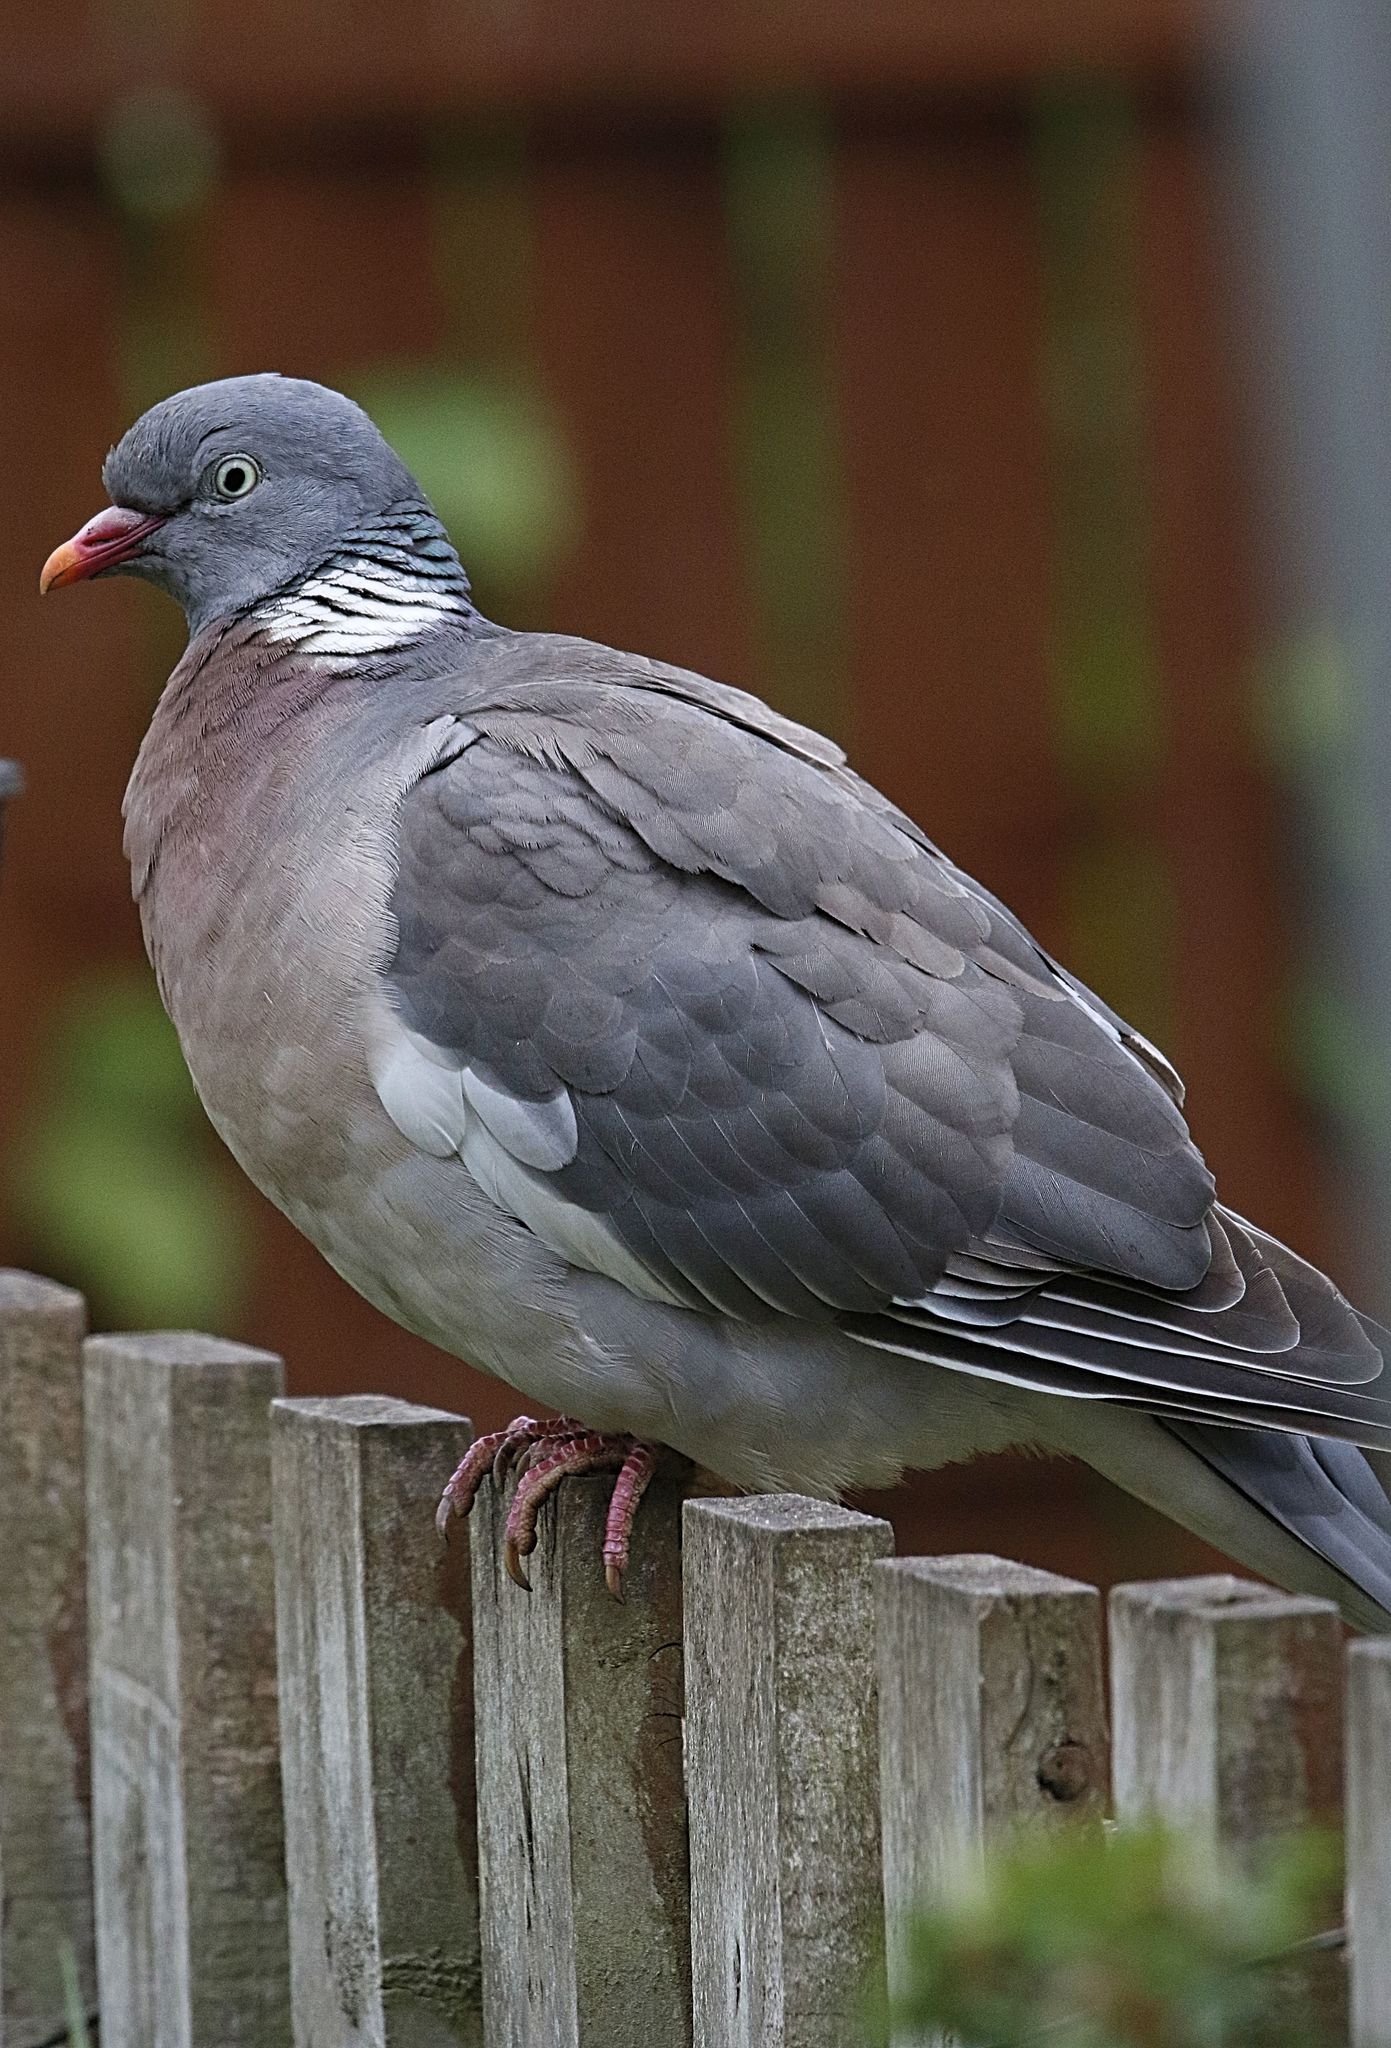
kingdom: Animalia
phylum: Chordata
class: Aves
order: Columbiformes
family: Columbidae
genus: Columba
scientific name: Columba palumbus
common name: Common wood pigeon
